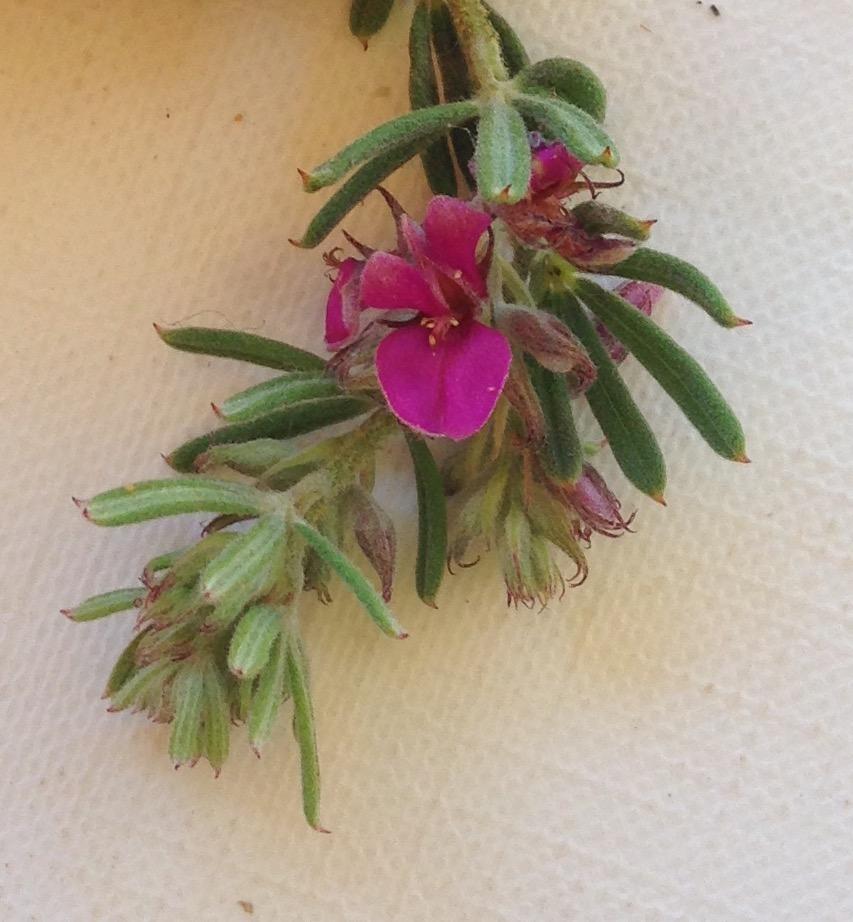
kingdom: Plantae
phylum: Tracheophyta
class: Magnoliopsida
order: Fabales
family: Fabaceae
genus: Indigofera
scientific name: Indigofera rhodantha
